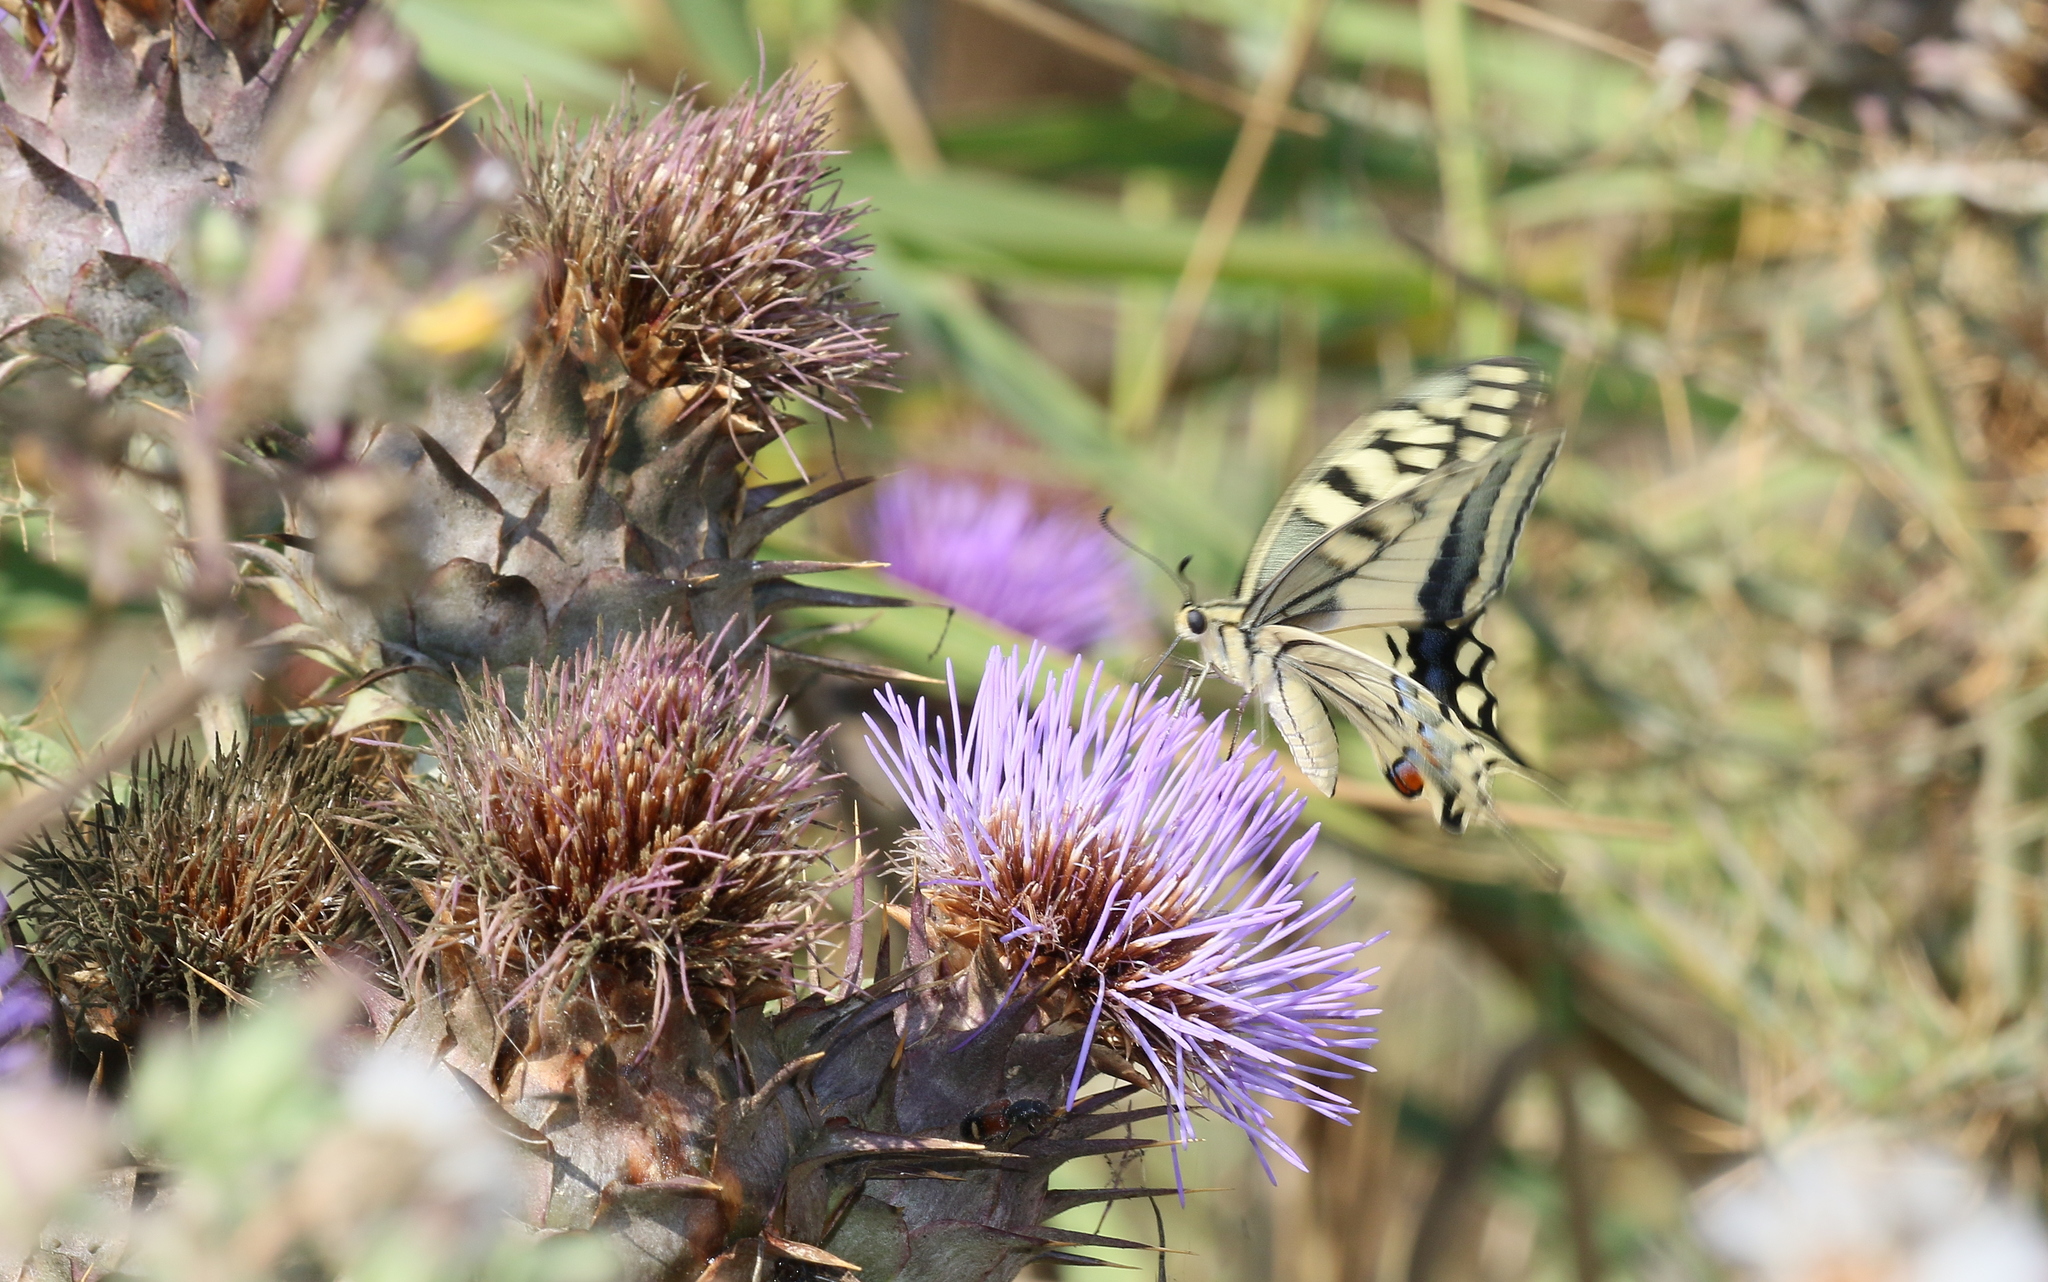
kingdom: Animalia
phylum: Arthropoda
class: Insecta
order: Lepidoptera
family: Papilionidae
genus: Papilio
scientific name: Papilio machaon
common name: Swallowtail
